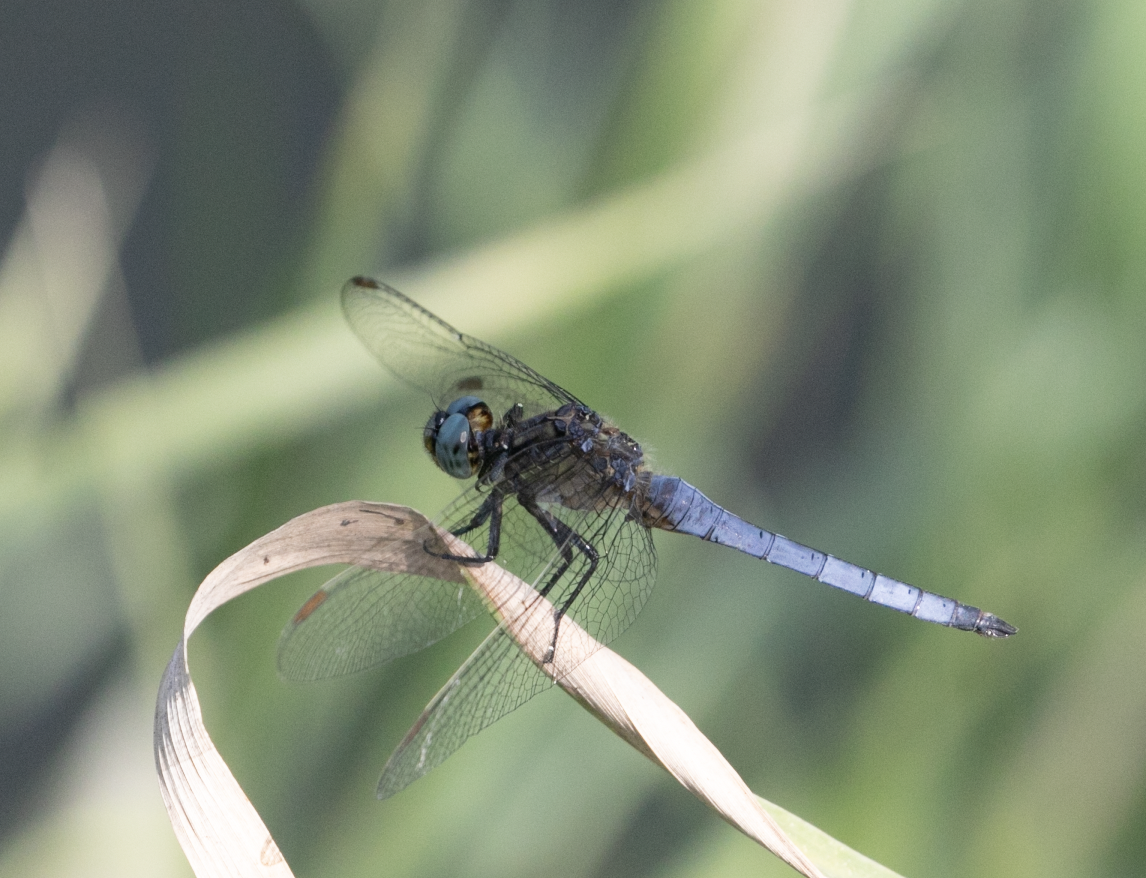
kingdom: Animalia
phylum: Arthropoda
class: Insecta
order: Odonata
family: Libellulidae
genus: Orthetrum
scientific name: Orthetrum coerulescens
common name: Keeled skimmer
